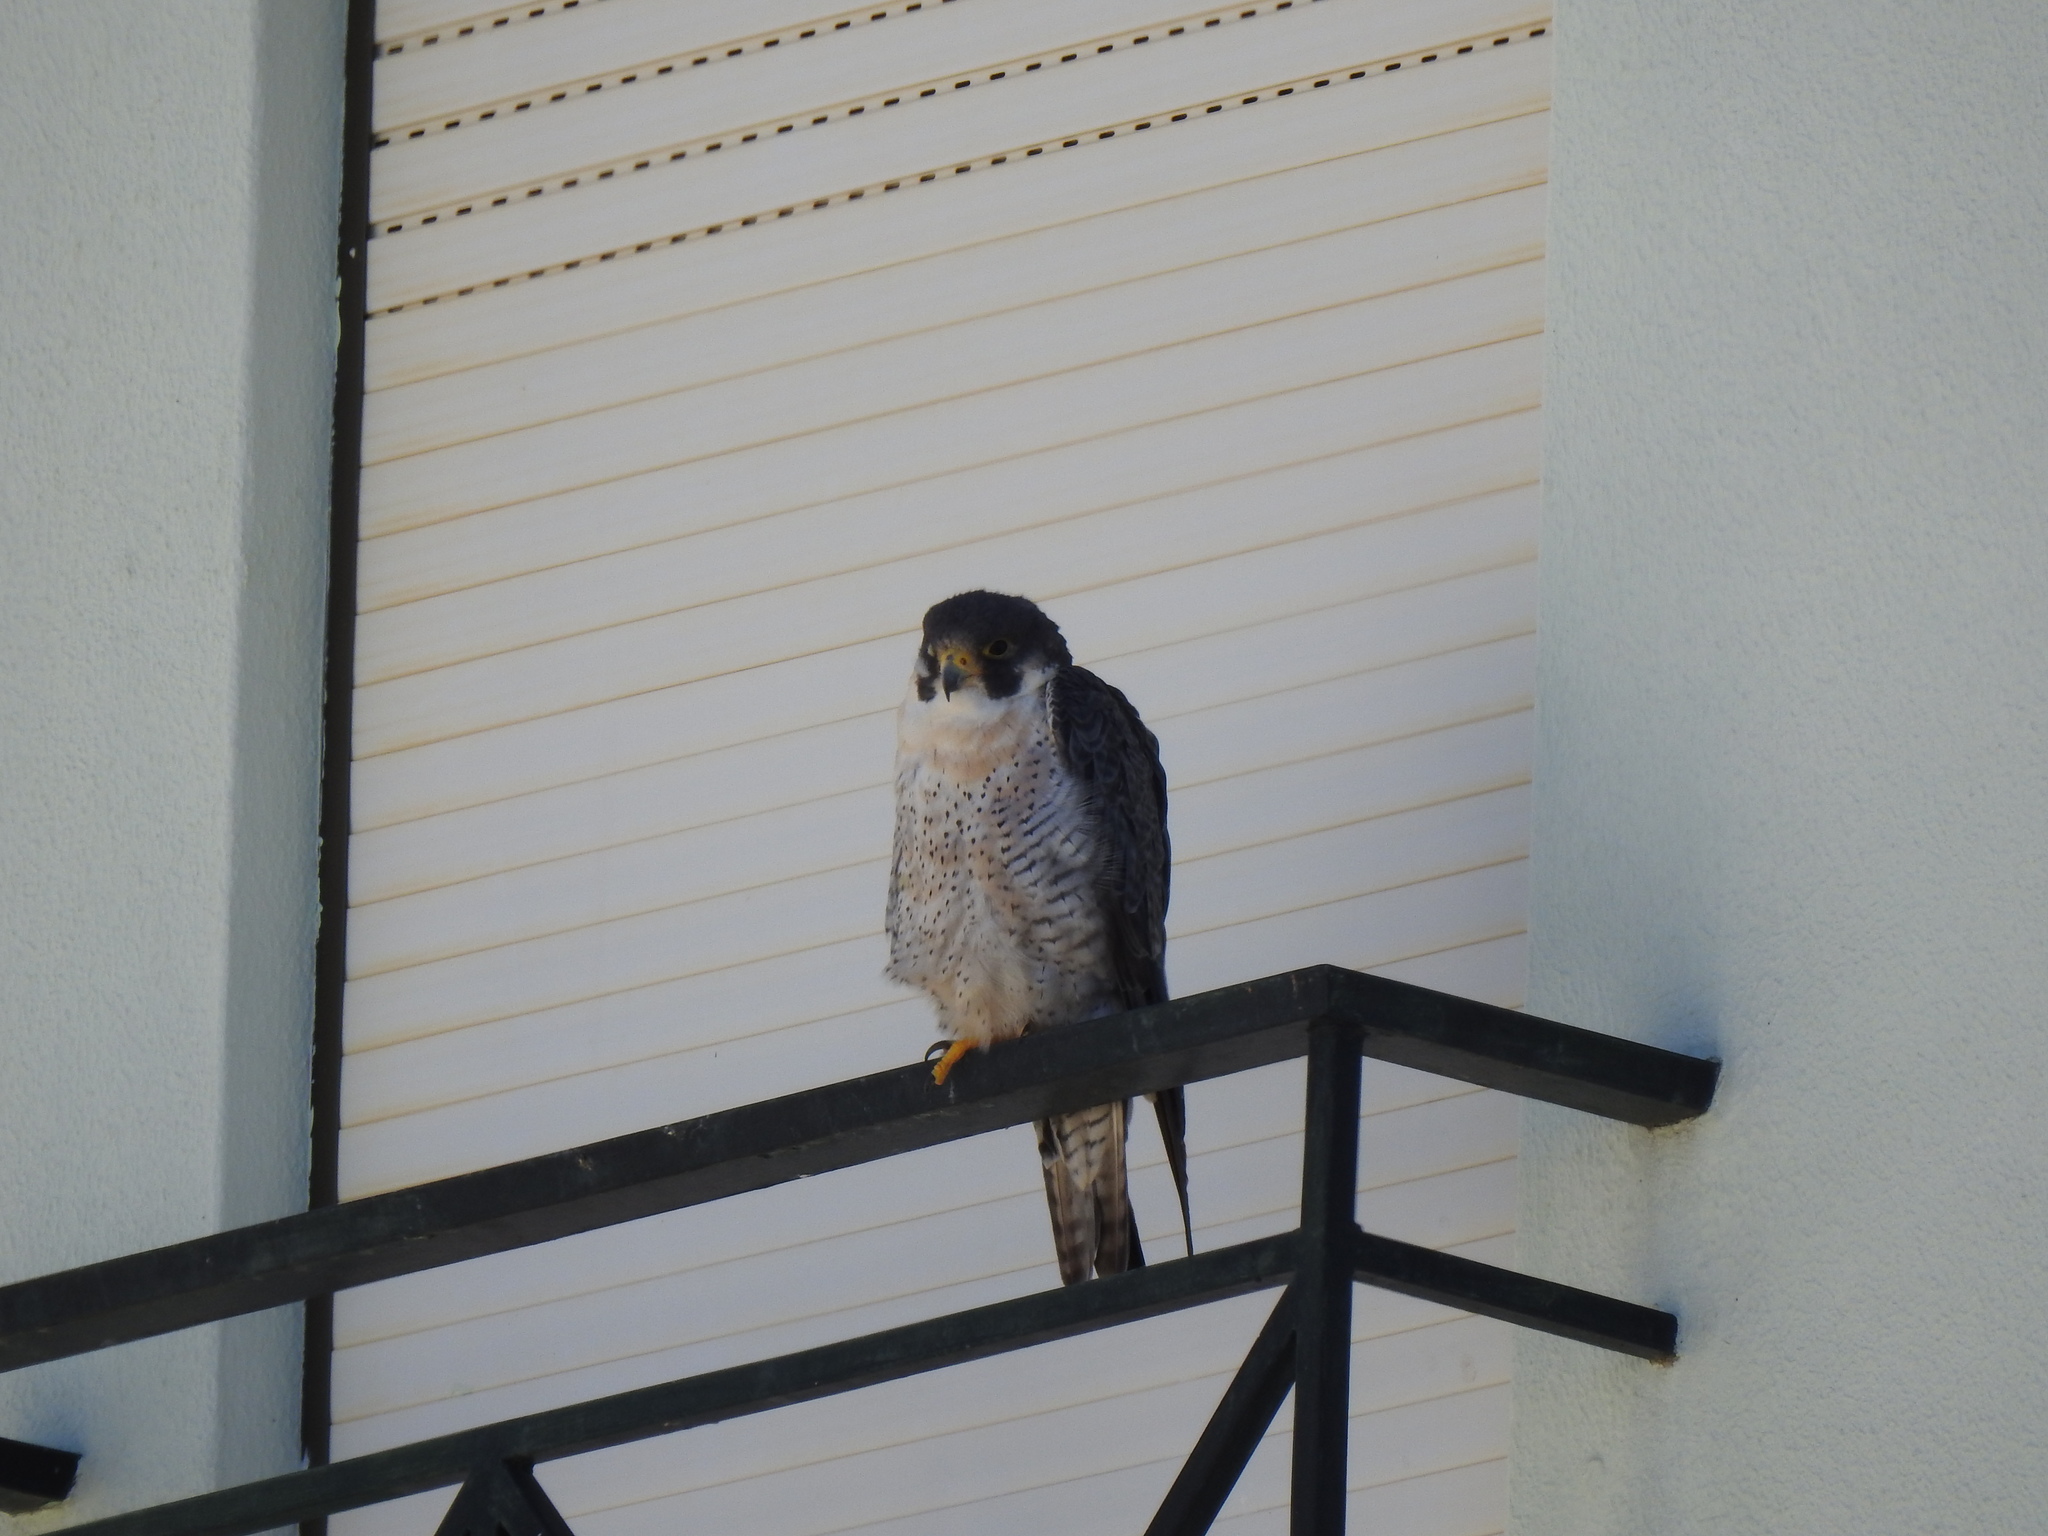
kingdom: Animalia
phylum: Chordata
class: Aves
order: Falconiformes
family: Falconidae
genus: Falco
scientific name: Falco peregrinus
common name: Peregrine falcon
